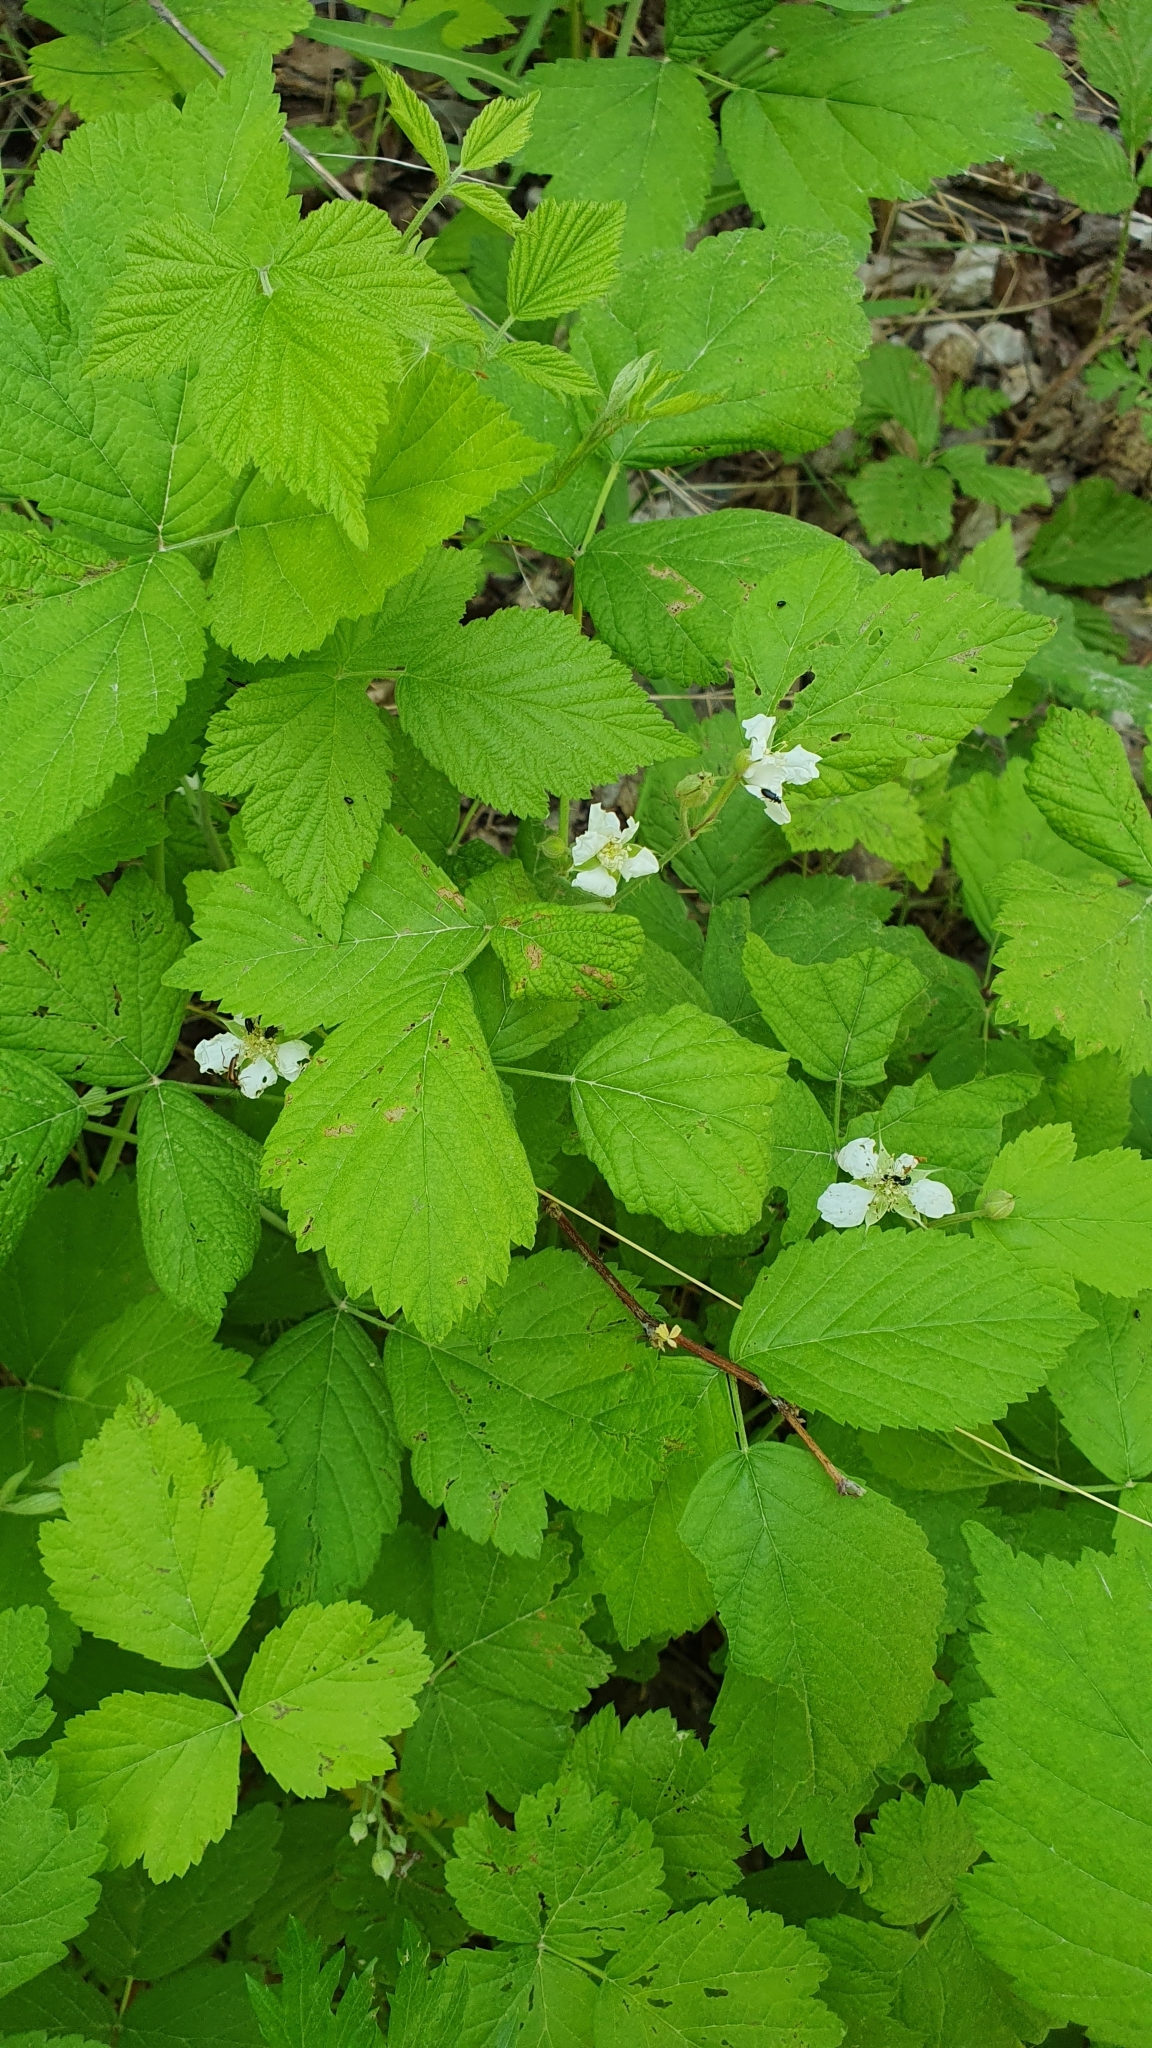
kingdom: Plantae
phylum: Tracheophyta
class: Magnoliopsida
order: Rosales
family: Rosaceae
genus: Rubus
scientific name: Rubus caesius
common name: Dewberry
